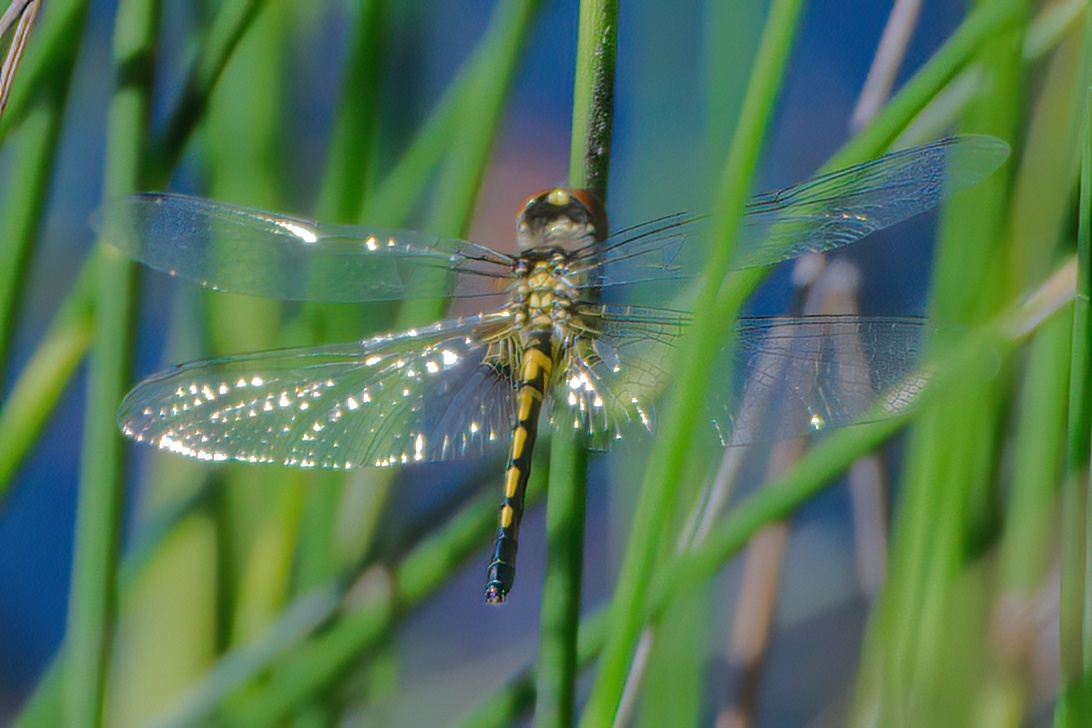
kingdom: Animalia
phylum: Arthropoda
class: Insecta
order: Odonata
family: Libellulidae
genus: Celithemis
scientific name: Celithemis ornata
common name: Ornate pennant
